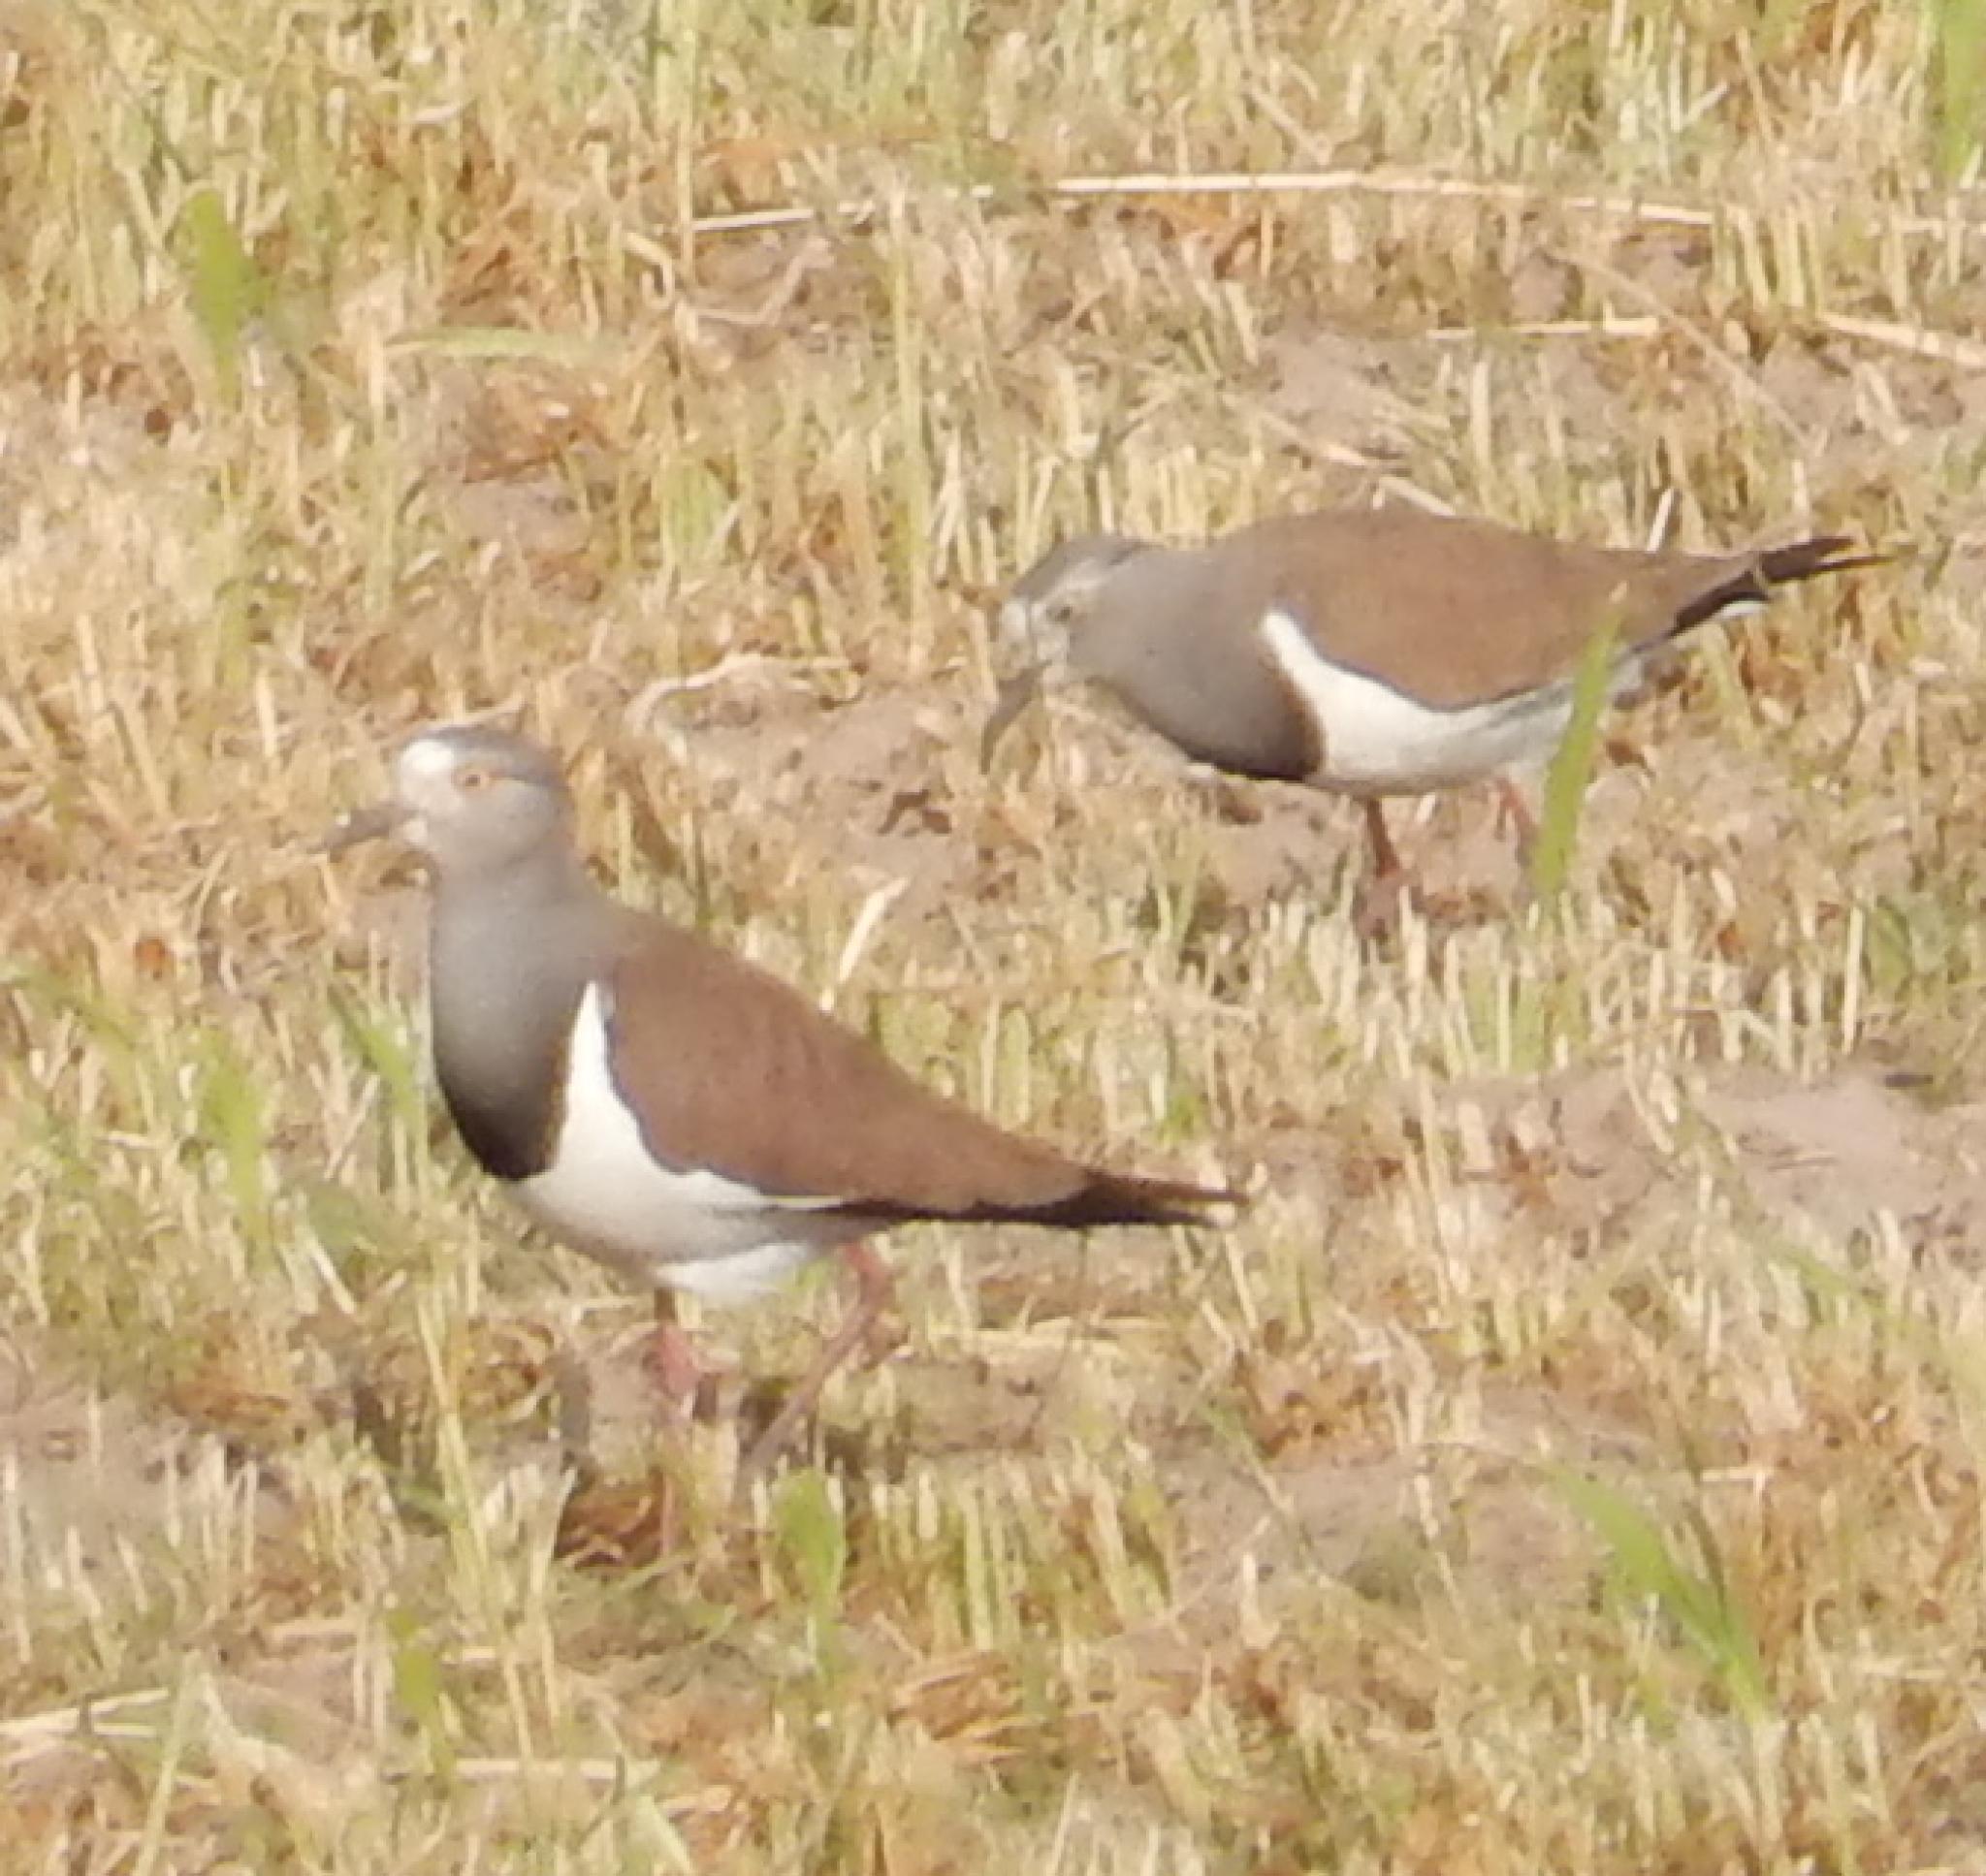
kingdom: Animalia
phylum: Chordata
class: Aves
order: Charadriiformes
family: Charadriidae
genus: Vanellus
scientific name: Vanellus melanopterus
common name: Black-winged lapwing
